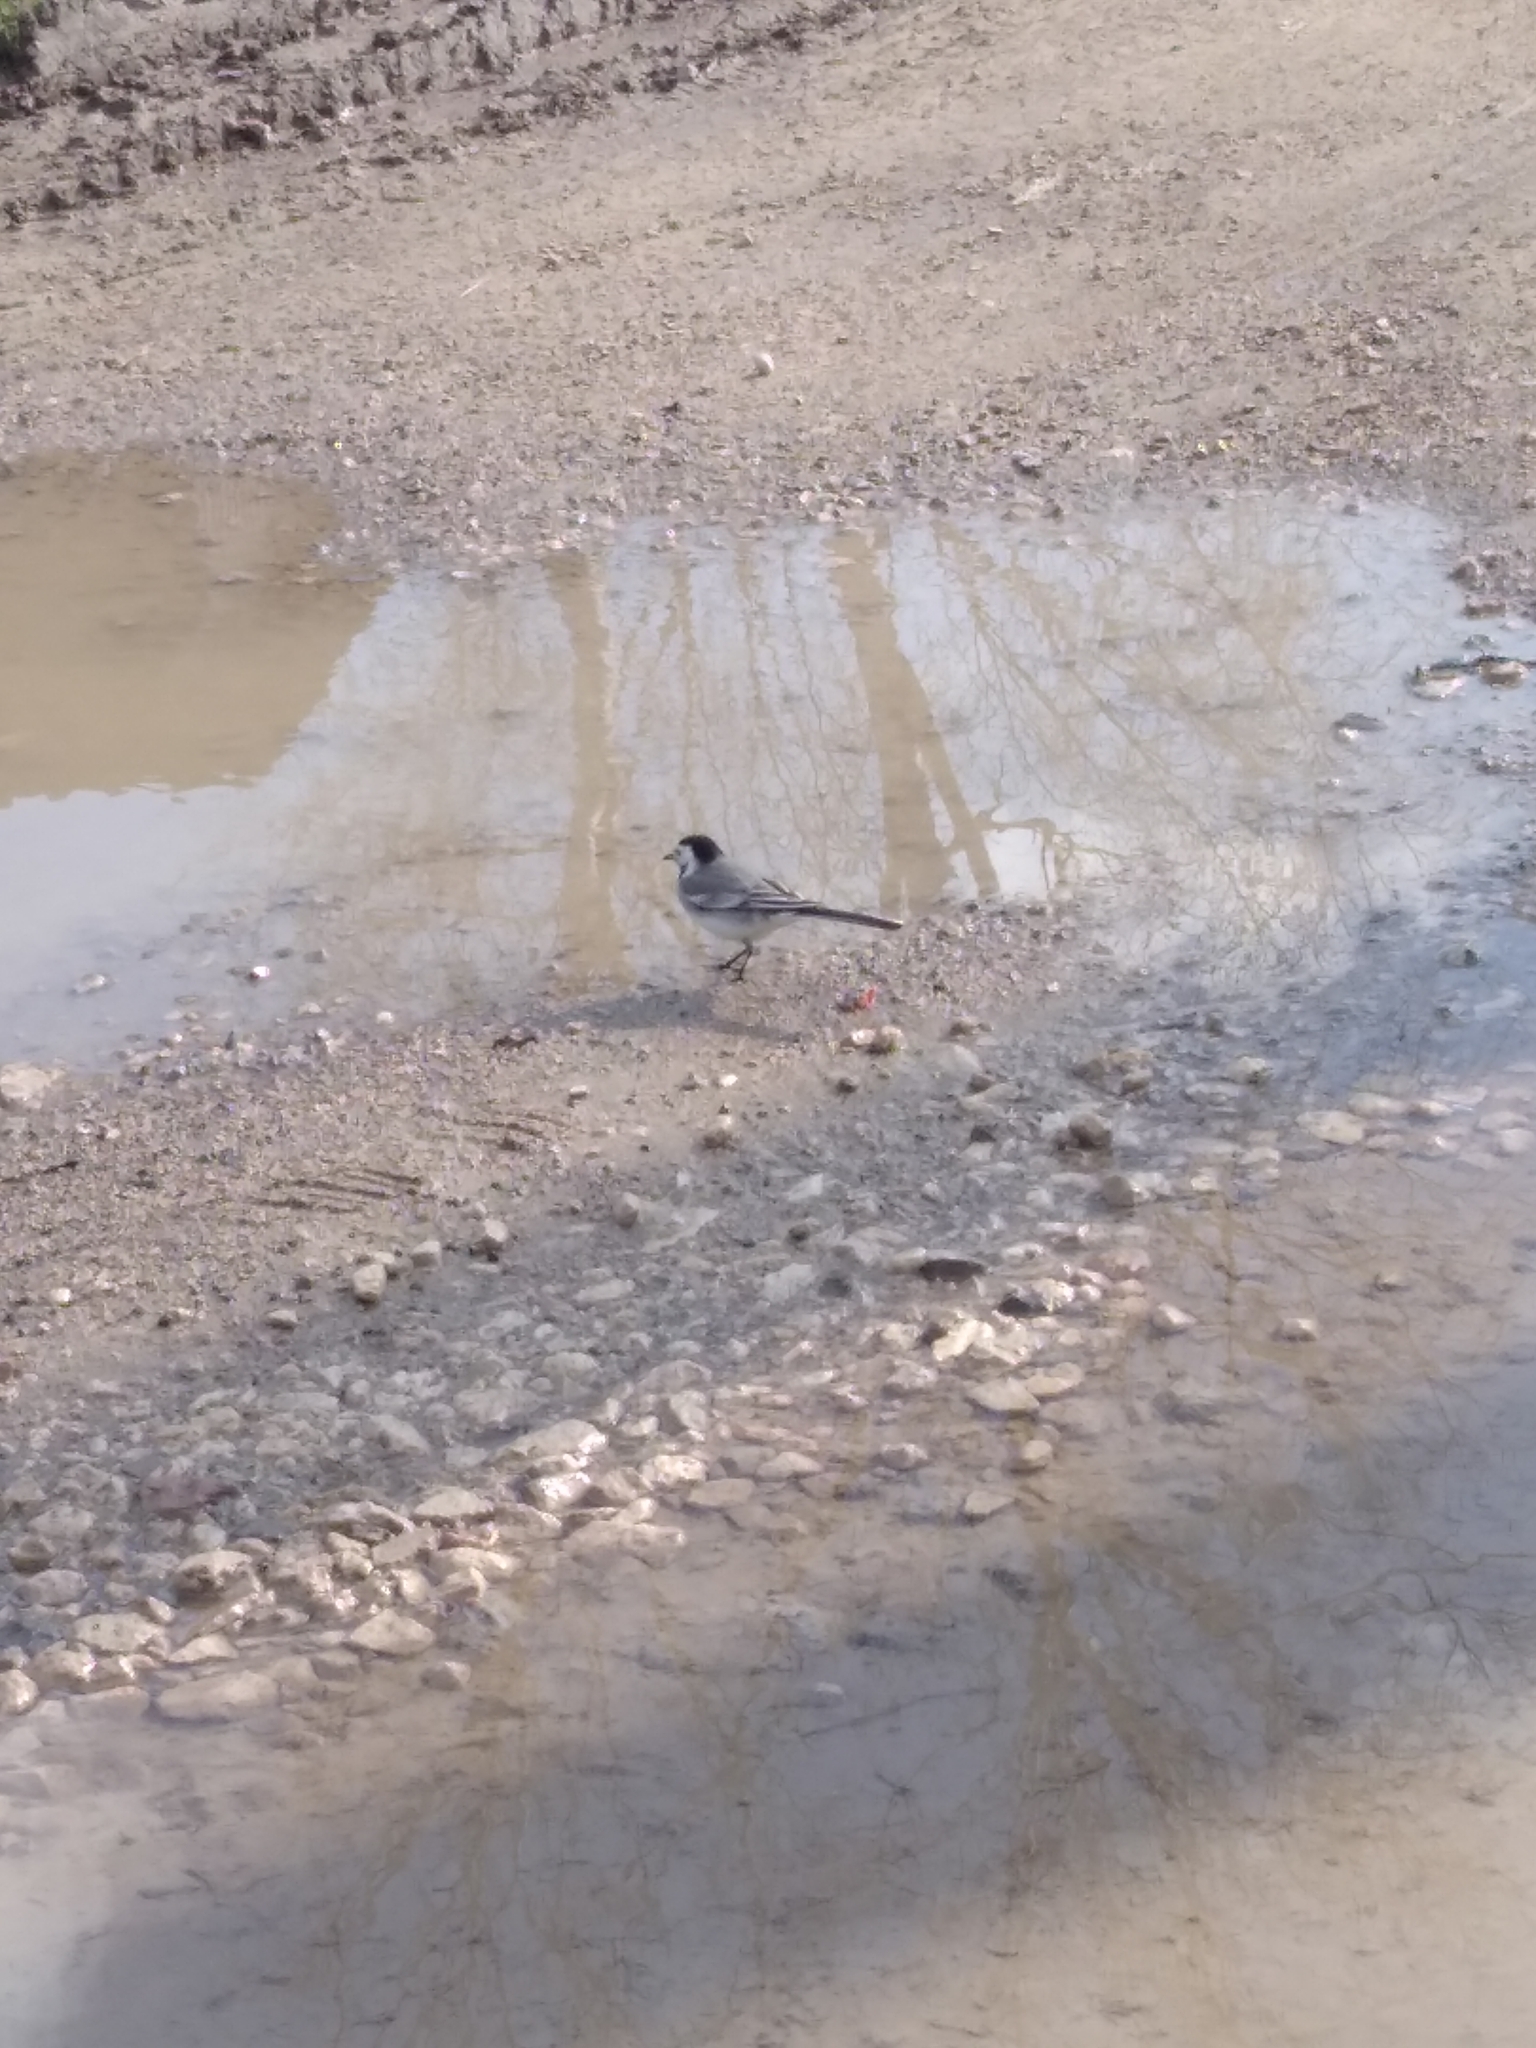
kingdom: Animalia
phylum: Chordata
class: Aves
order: Passeriformes
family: Motacillidae
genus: Motacilla
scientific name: Motacilla alba
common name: White wagtail
